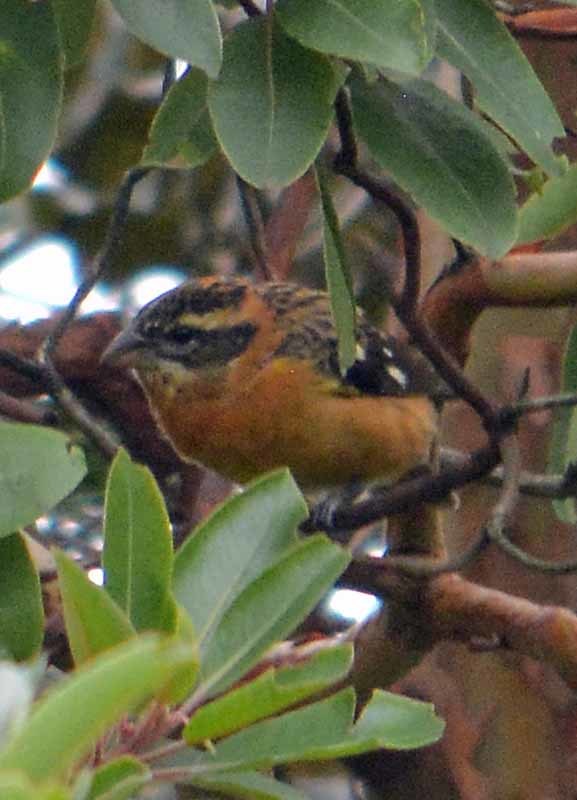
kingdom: Animalia
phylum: Chordata
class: Aves
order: Passeriformes
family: Cardinalidae
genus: Pheucticus
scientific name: Pheucticus melanocephalus
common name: Black-headed grosbeak
